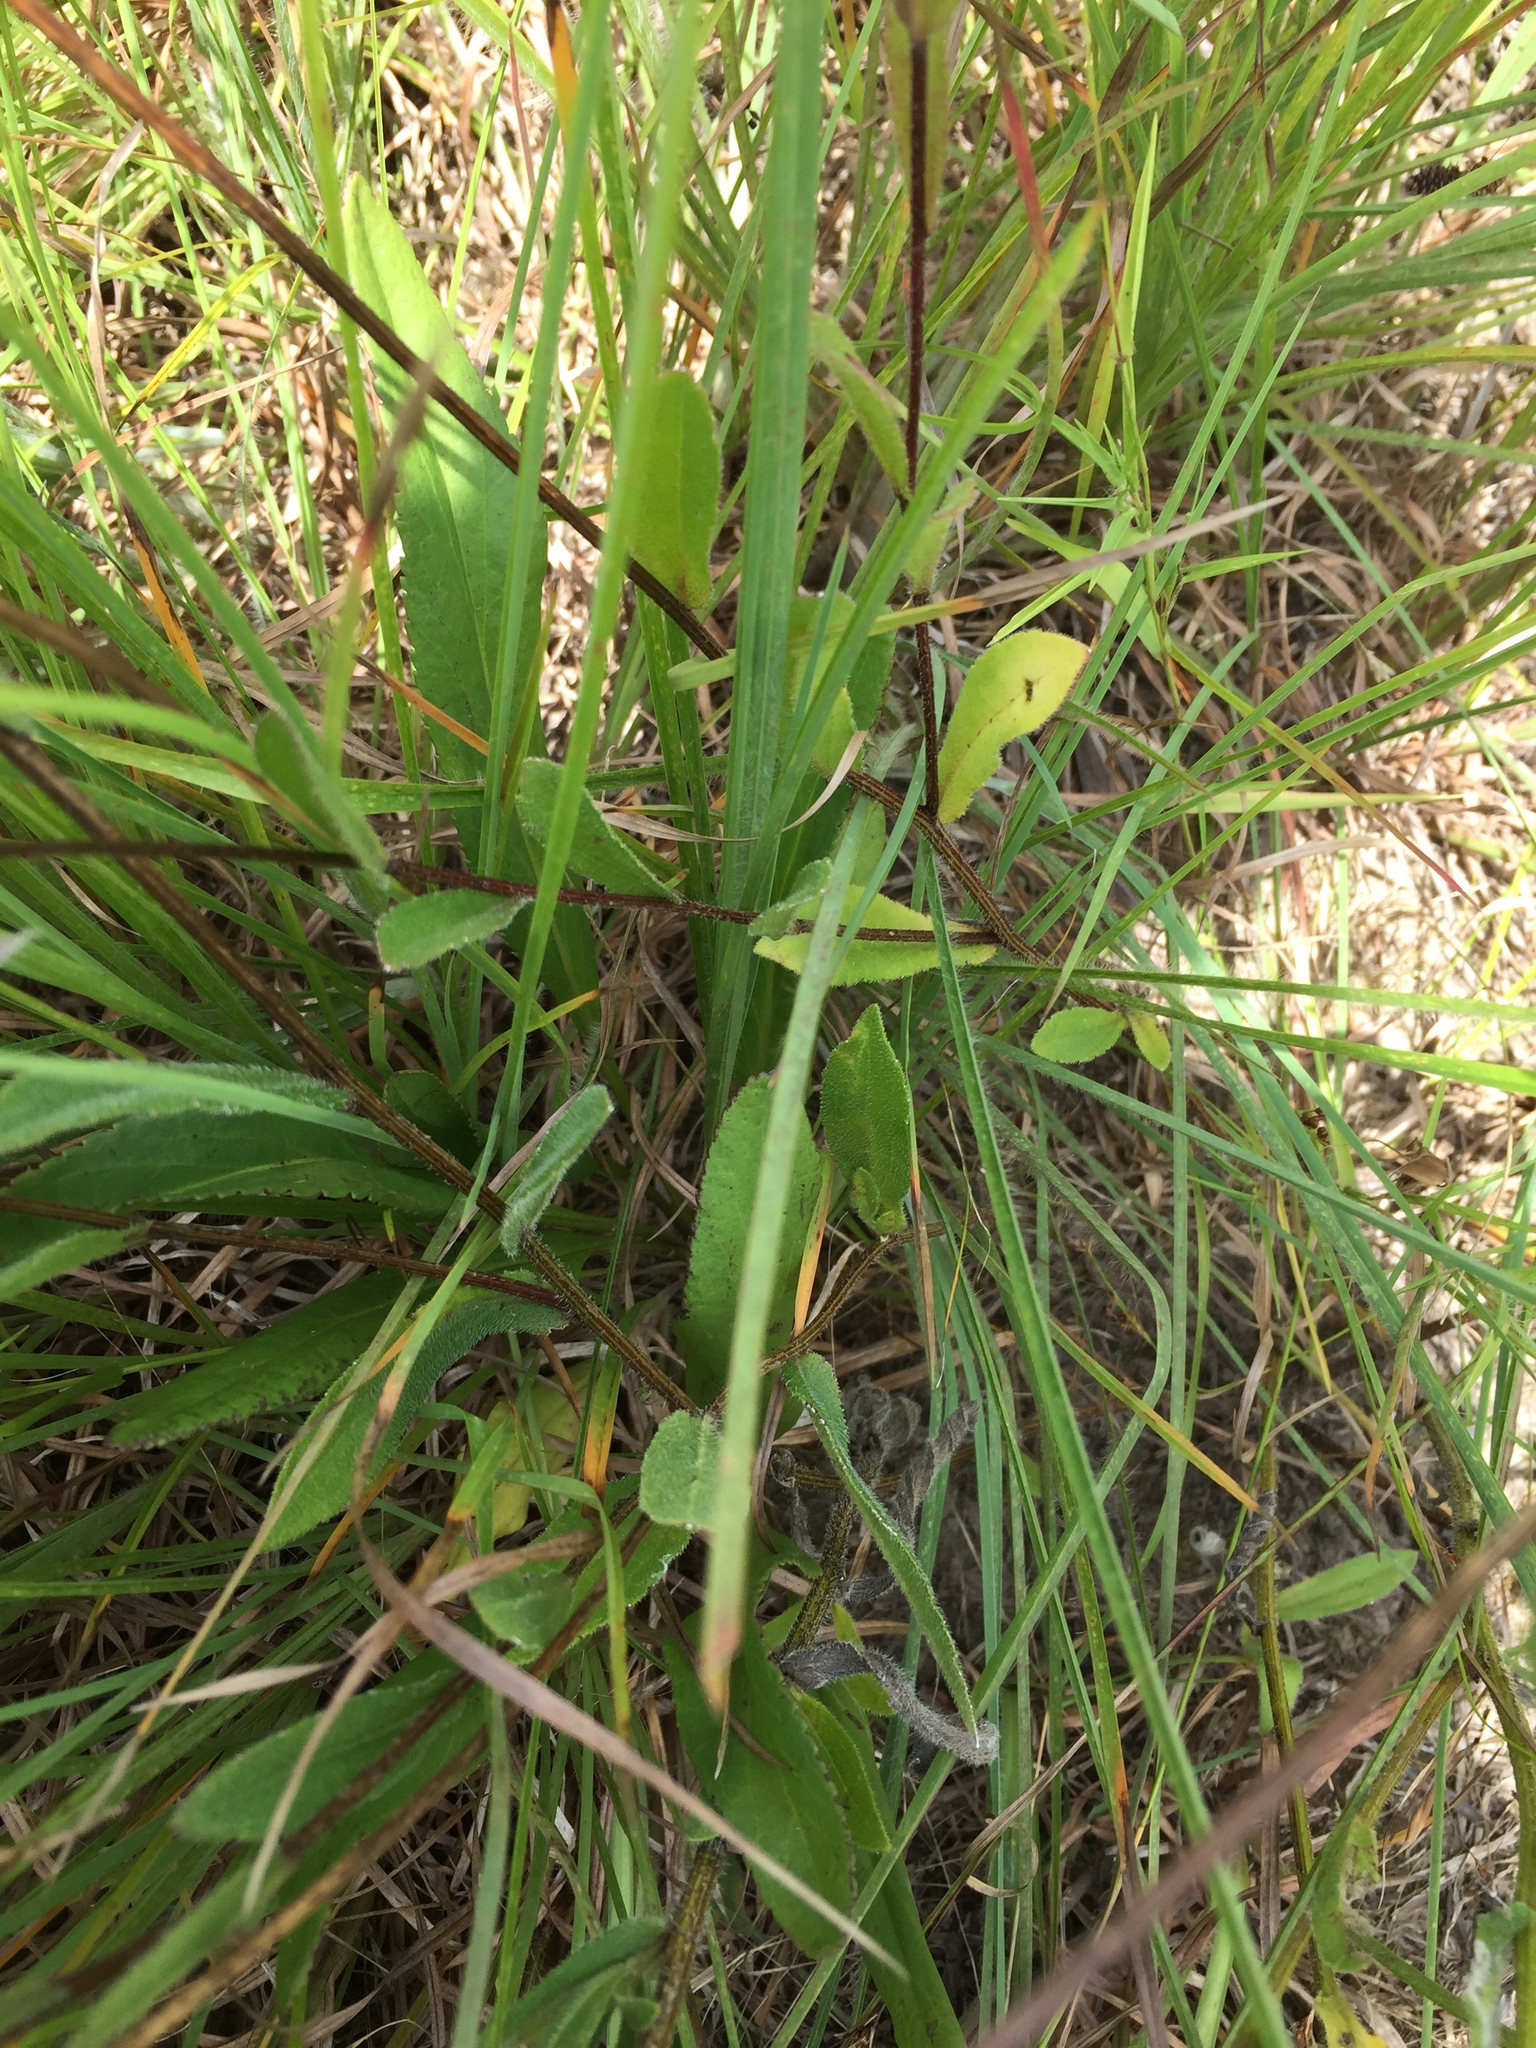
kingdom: Plantae
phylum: Tracheophyta
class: Magnoliopsida
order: Asterales
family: Asteraceae
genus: Packera
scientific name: Packera anonyma
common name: Small ragwort
